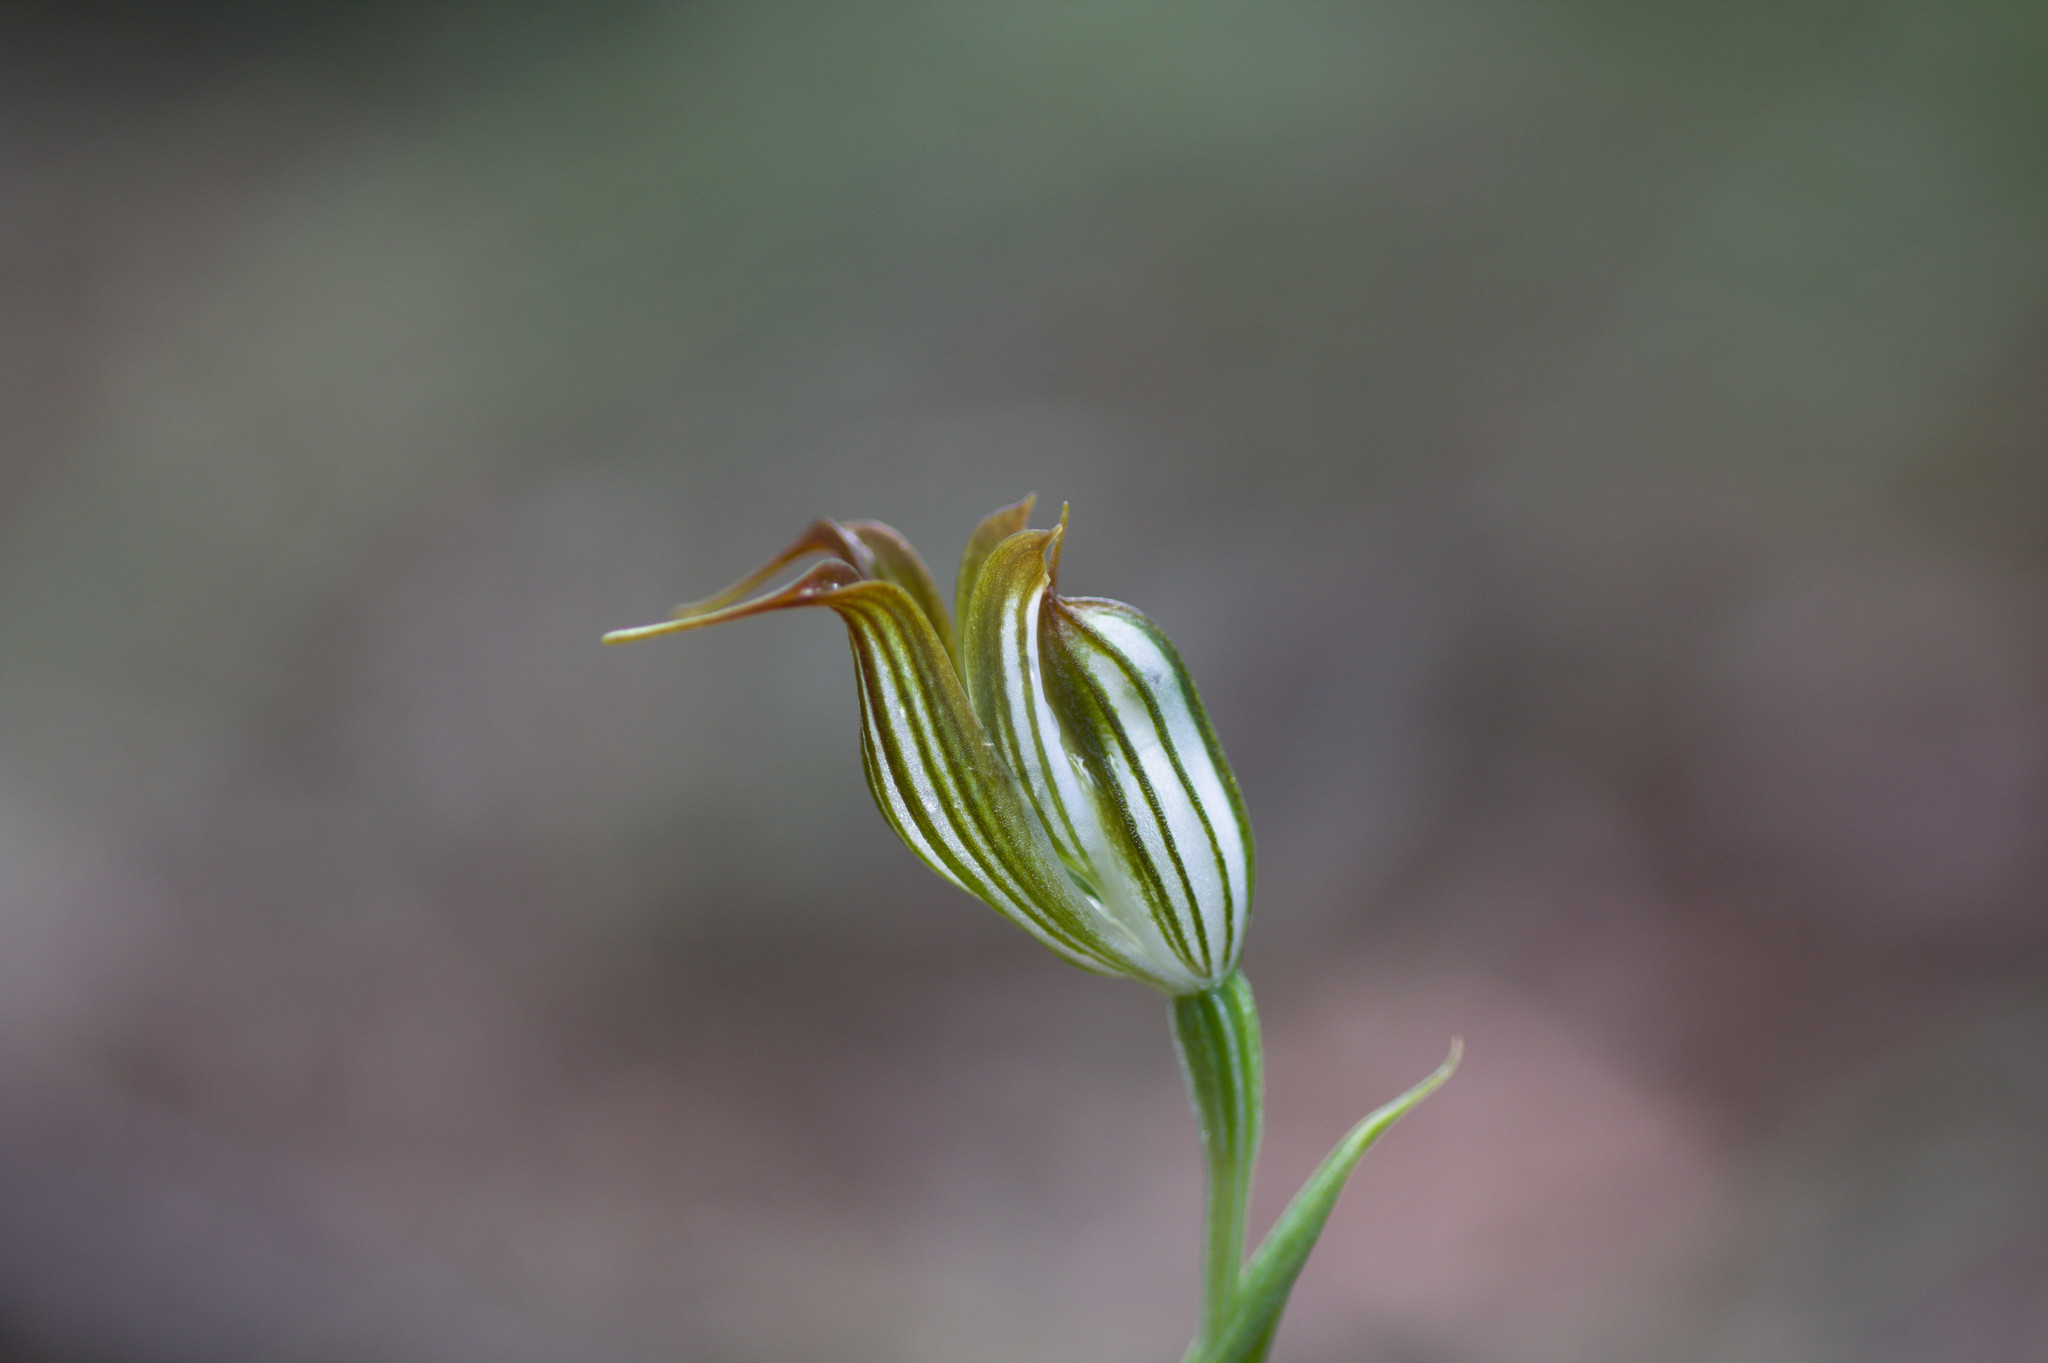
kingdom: Plantae
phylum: Tracheophyta
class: Liliopsida
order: Asparagales
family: Orchidaceae
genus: Pterostylis
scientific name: Pterostylis recurva
